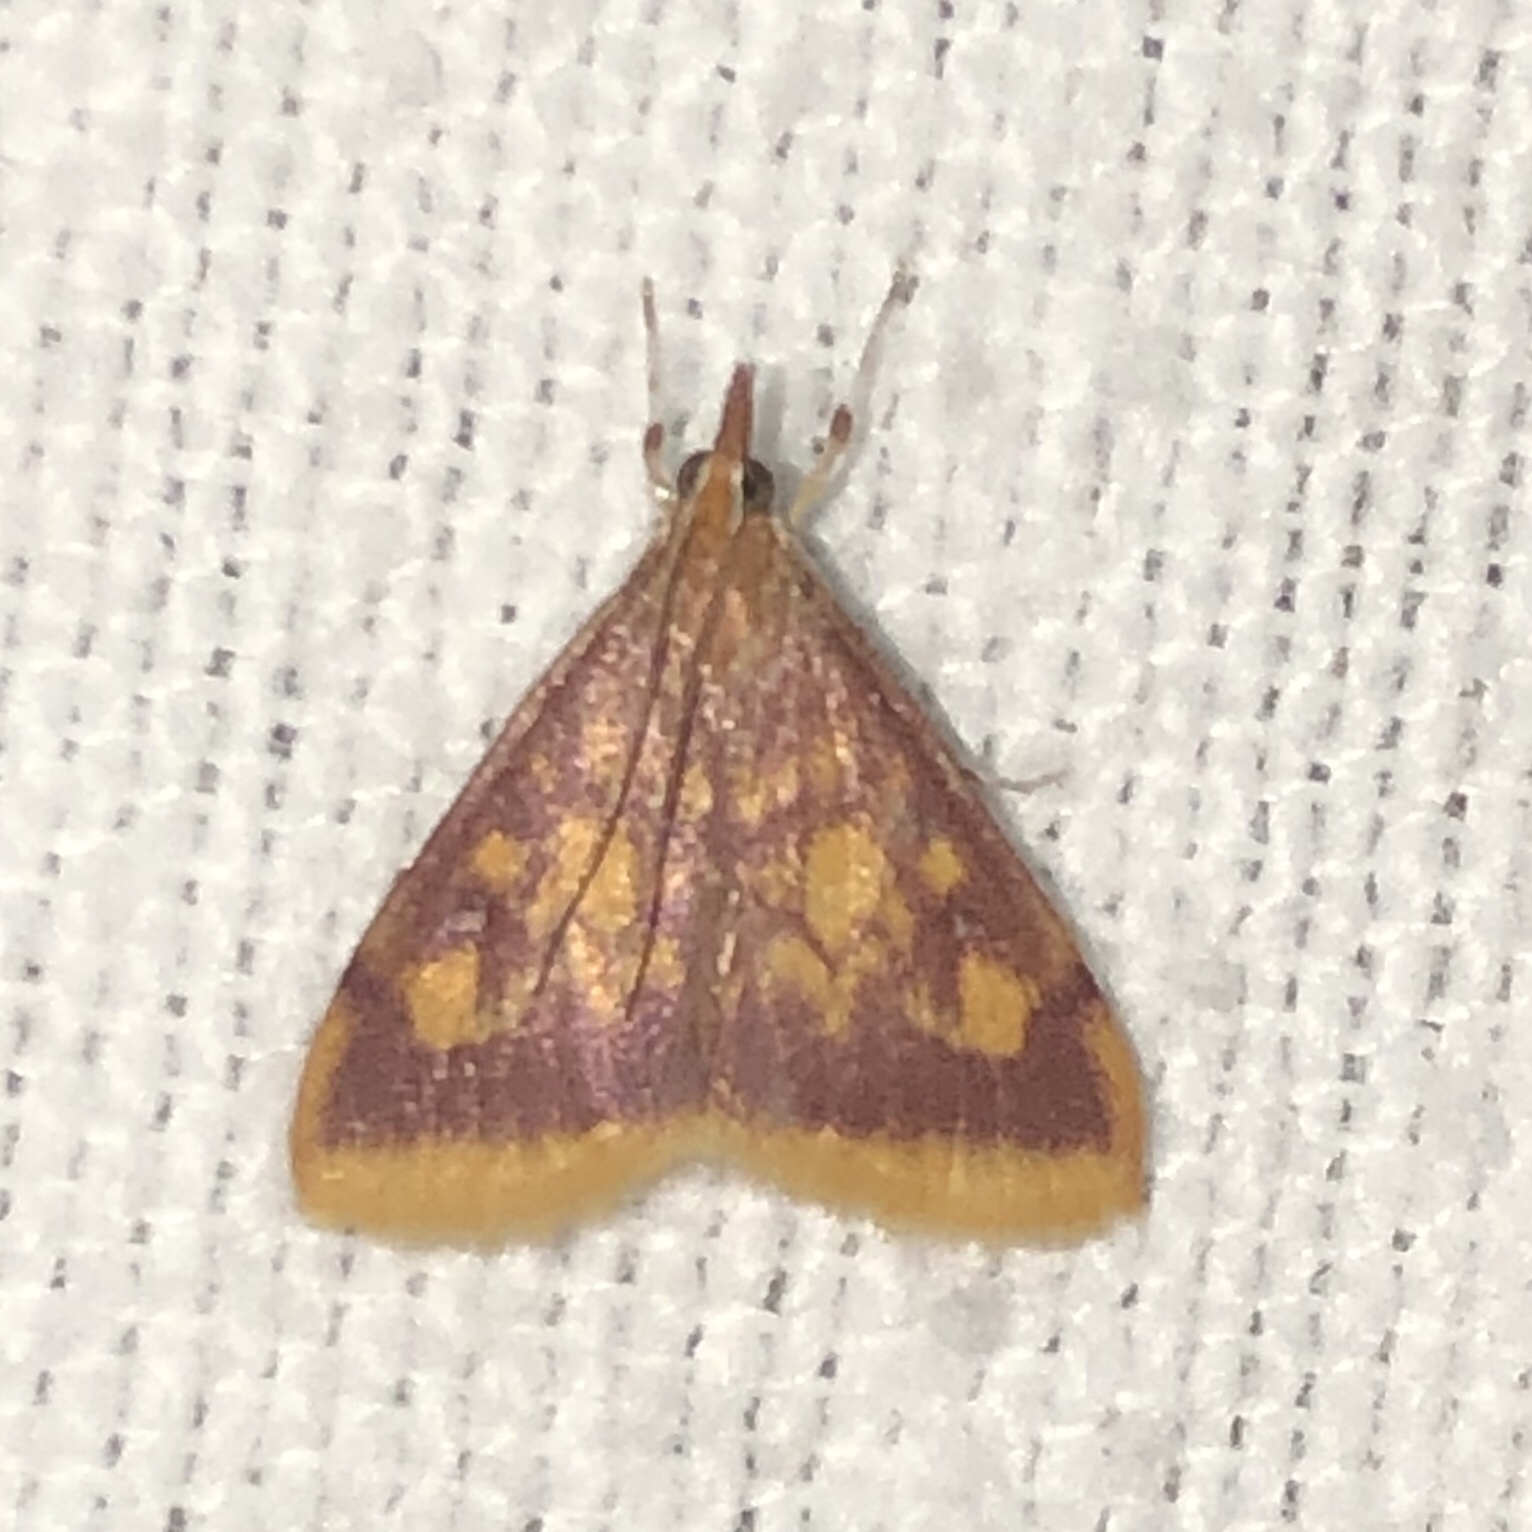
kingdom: Animalia
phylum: Arthropoda
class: Insecta
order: Lepidoptera
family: Crambidae
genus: Pyrausta
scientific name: Pyrausta acrionalis
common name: Mint-loving pyrausta moth
